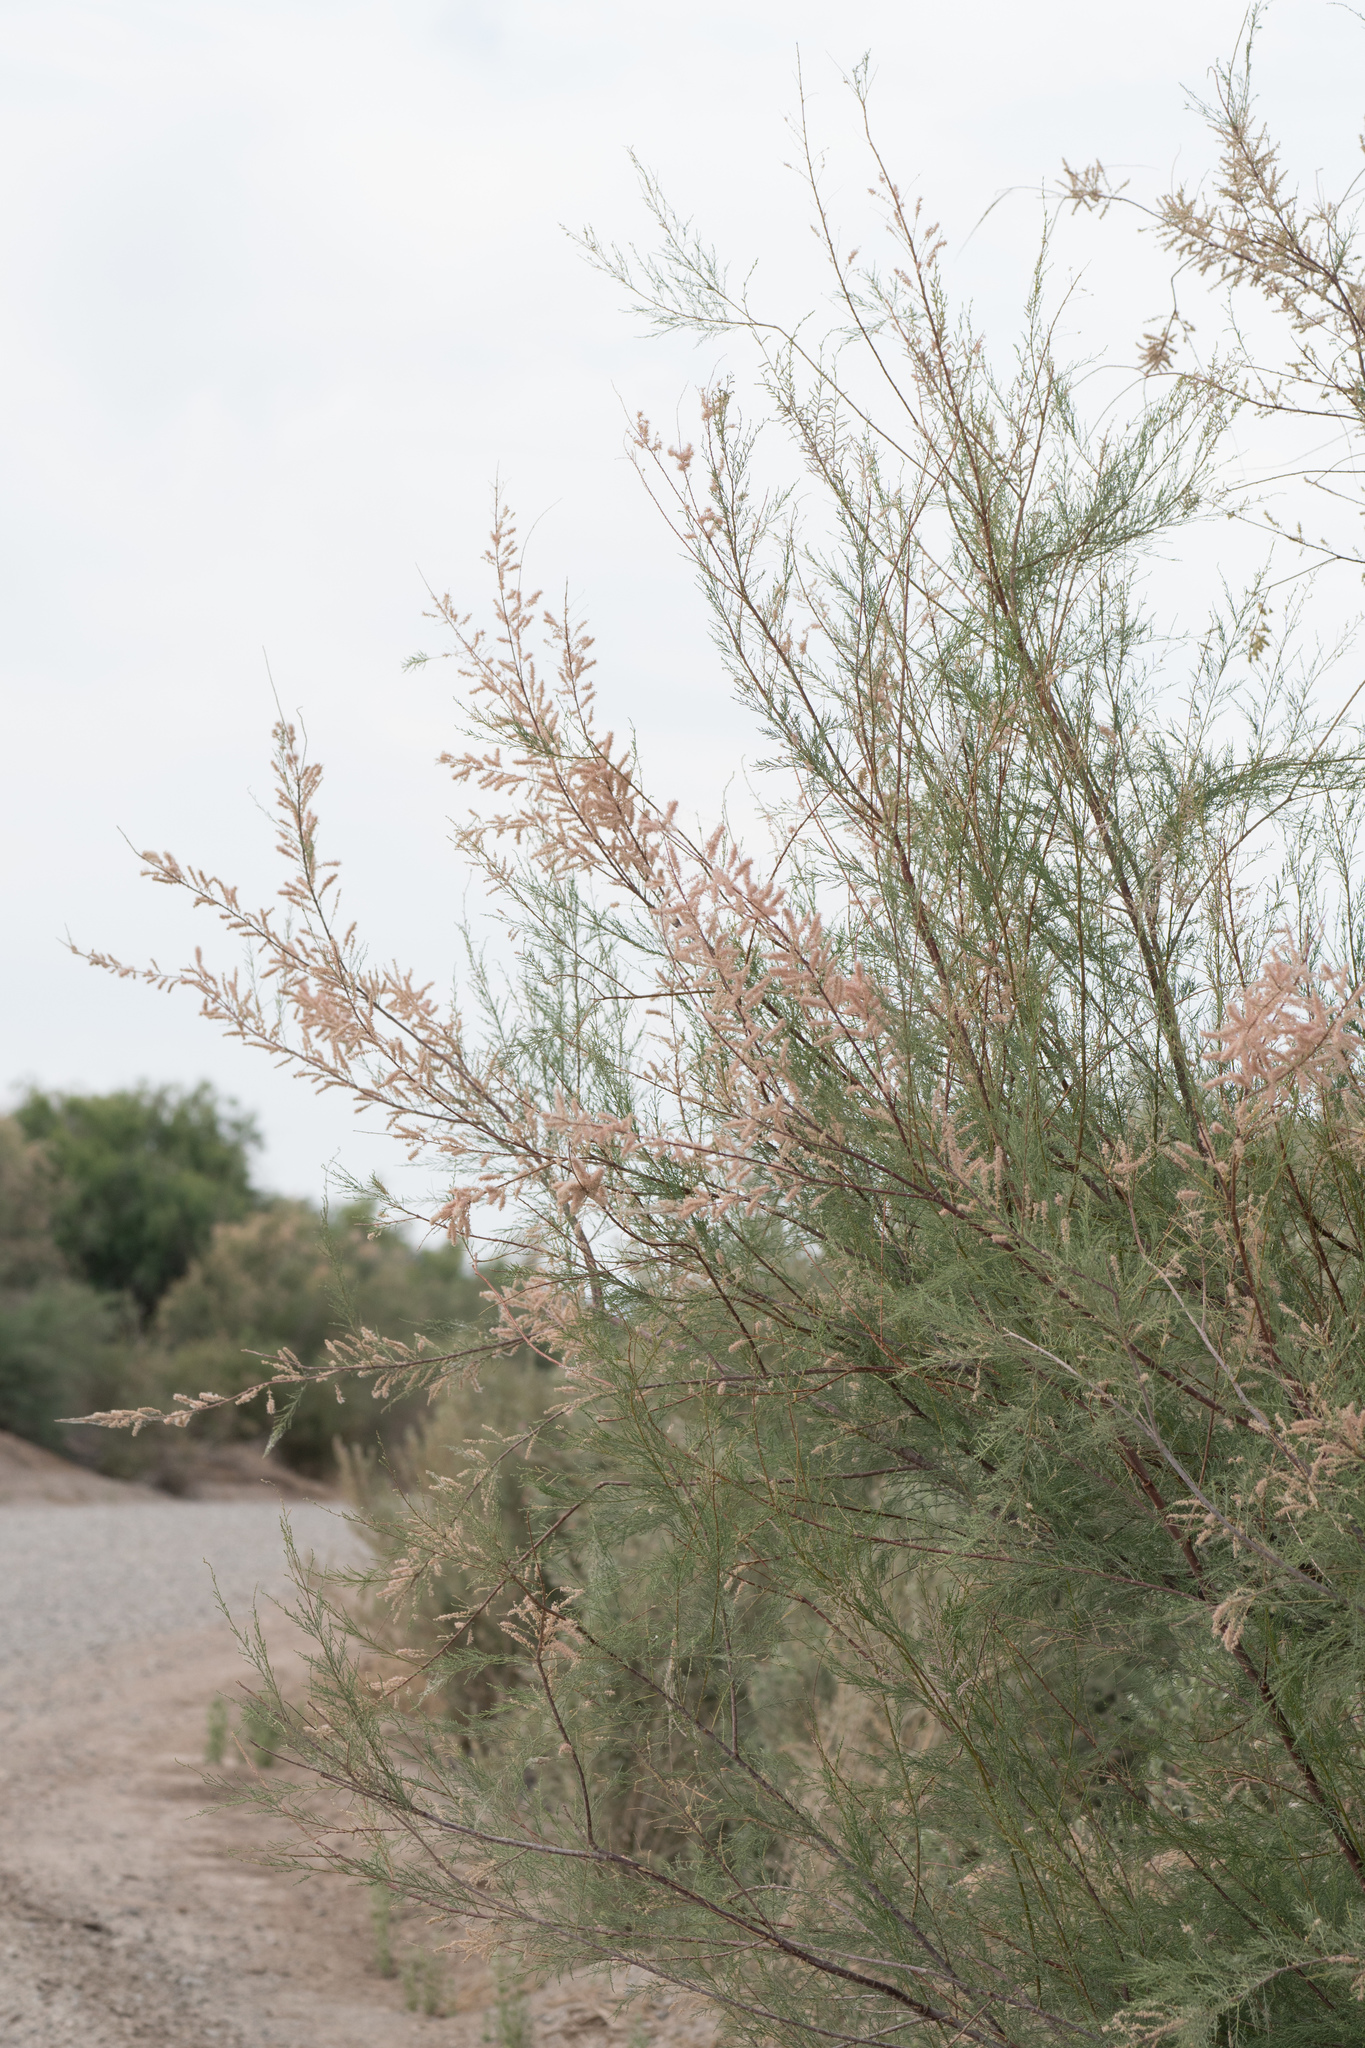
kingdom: Plantae
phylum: Tracheophyta
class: Magnoliopsida
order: Caryophyllales
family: Tamaricaceae
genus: Tamarix
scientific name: Tamarix
